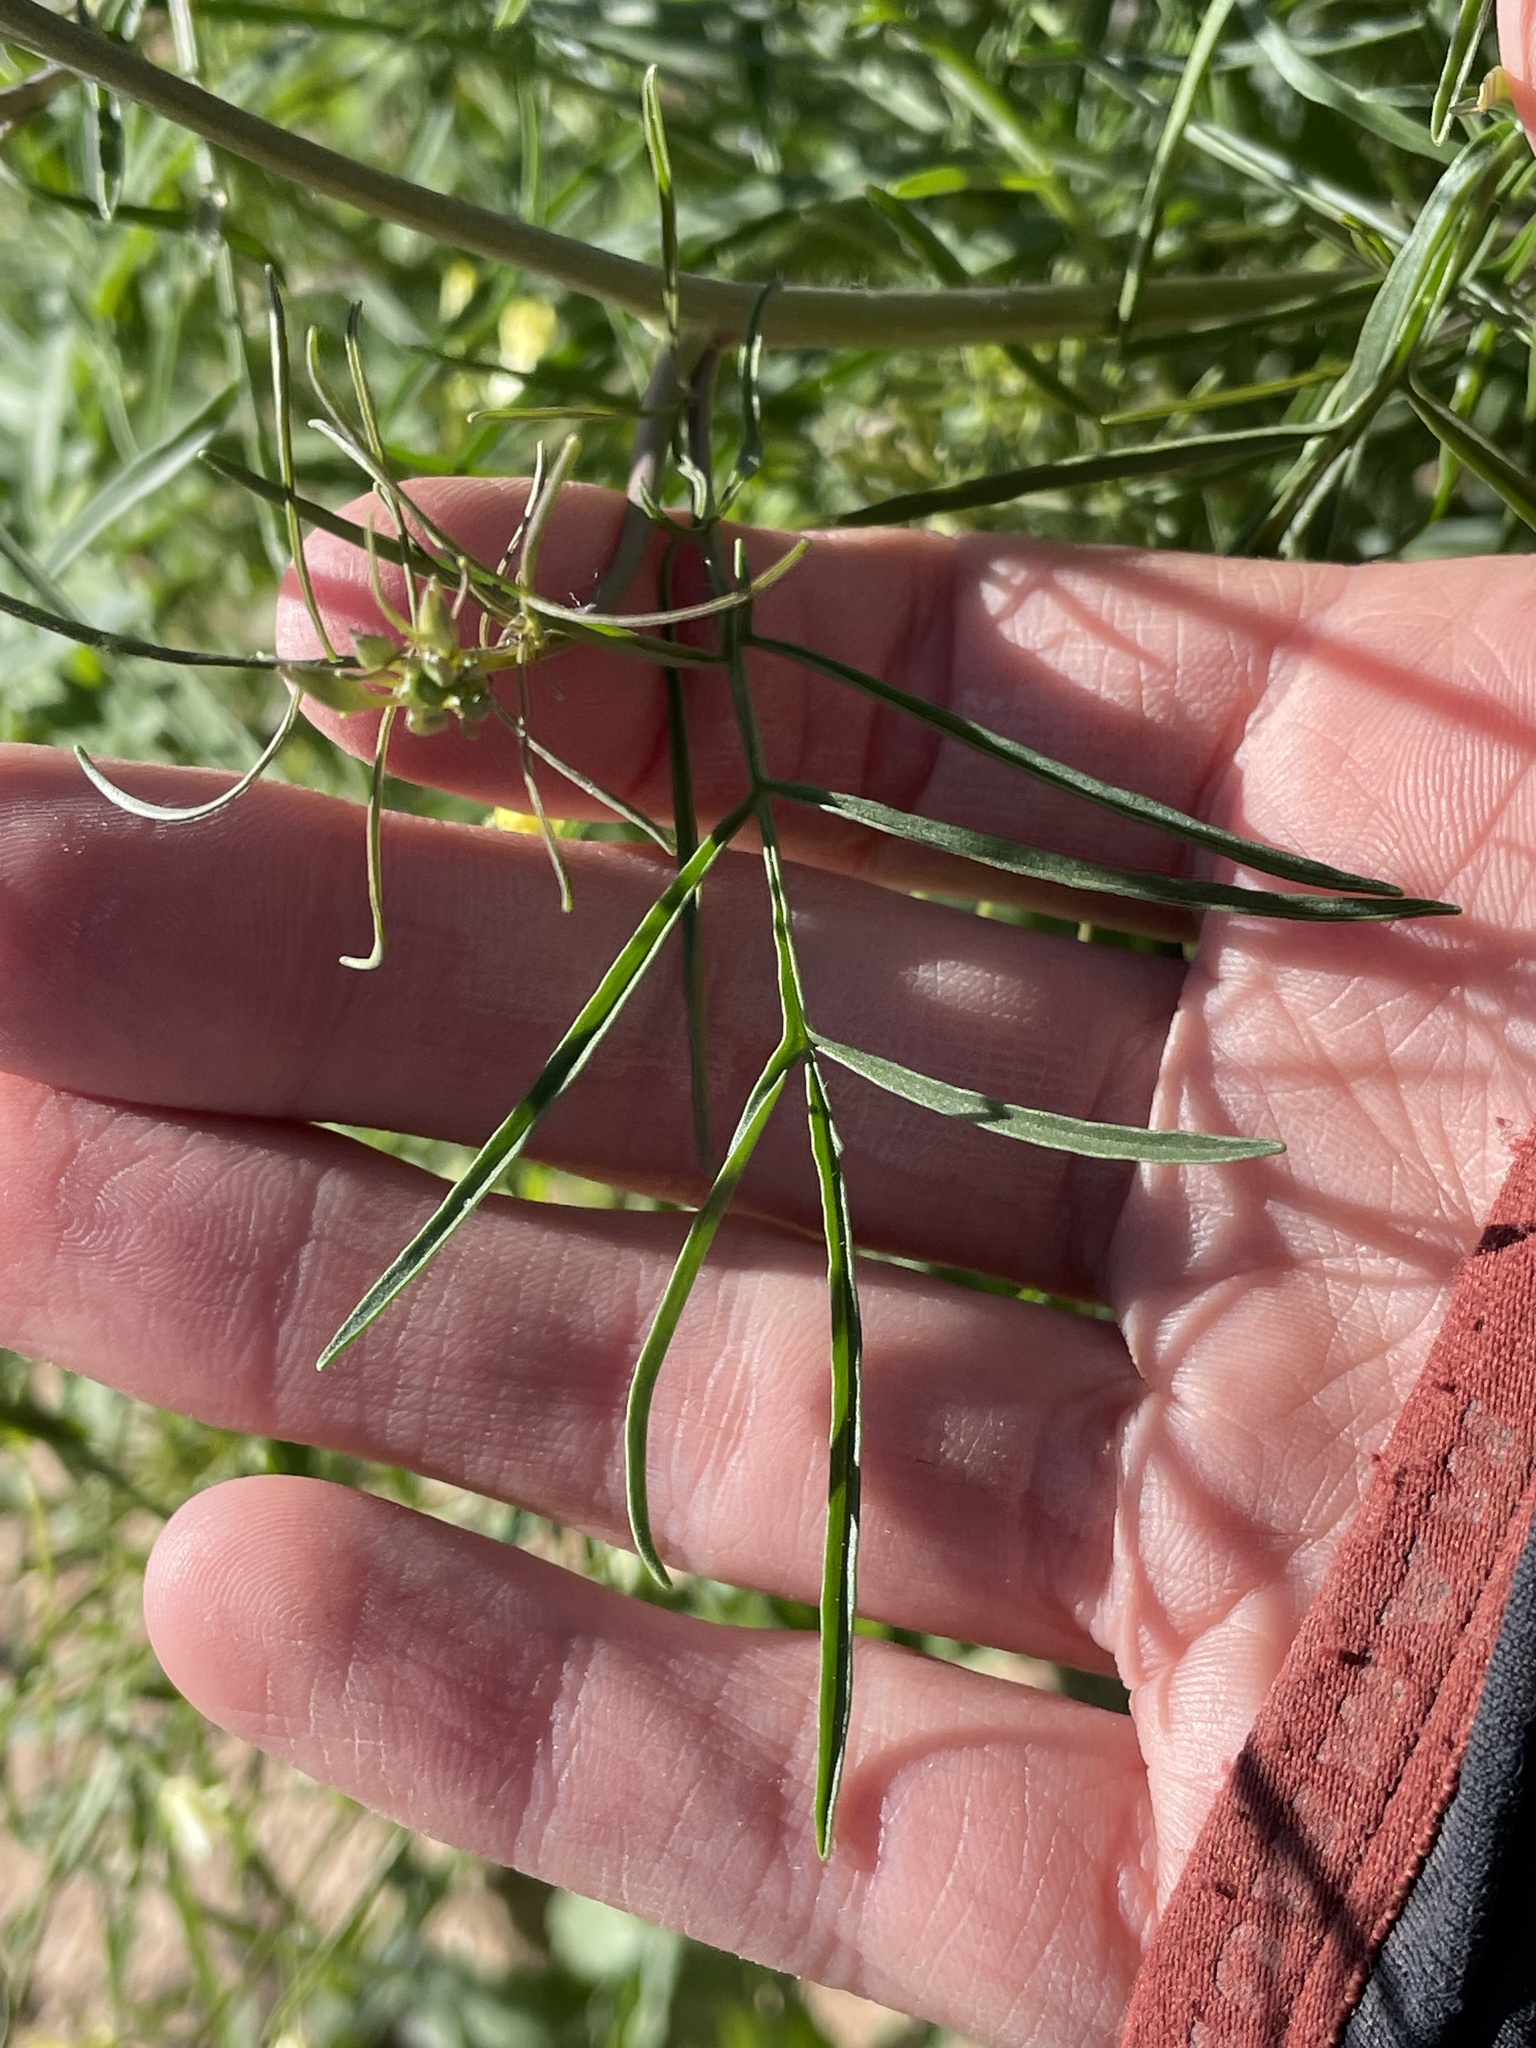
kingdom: Plantae
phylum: Tracheophyta
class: Magnoliopsida
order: Brassicales
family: Brassicaceae
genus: Sisymbrium
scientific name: Sisymbrium altissimum
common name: Tall rocket
